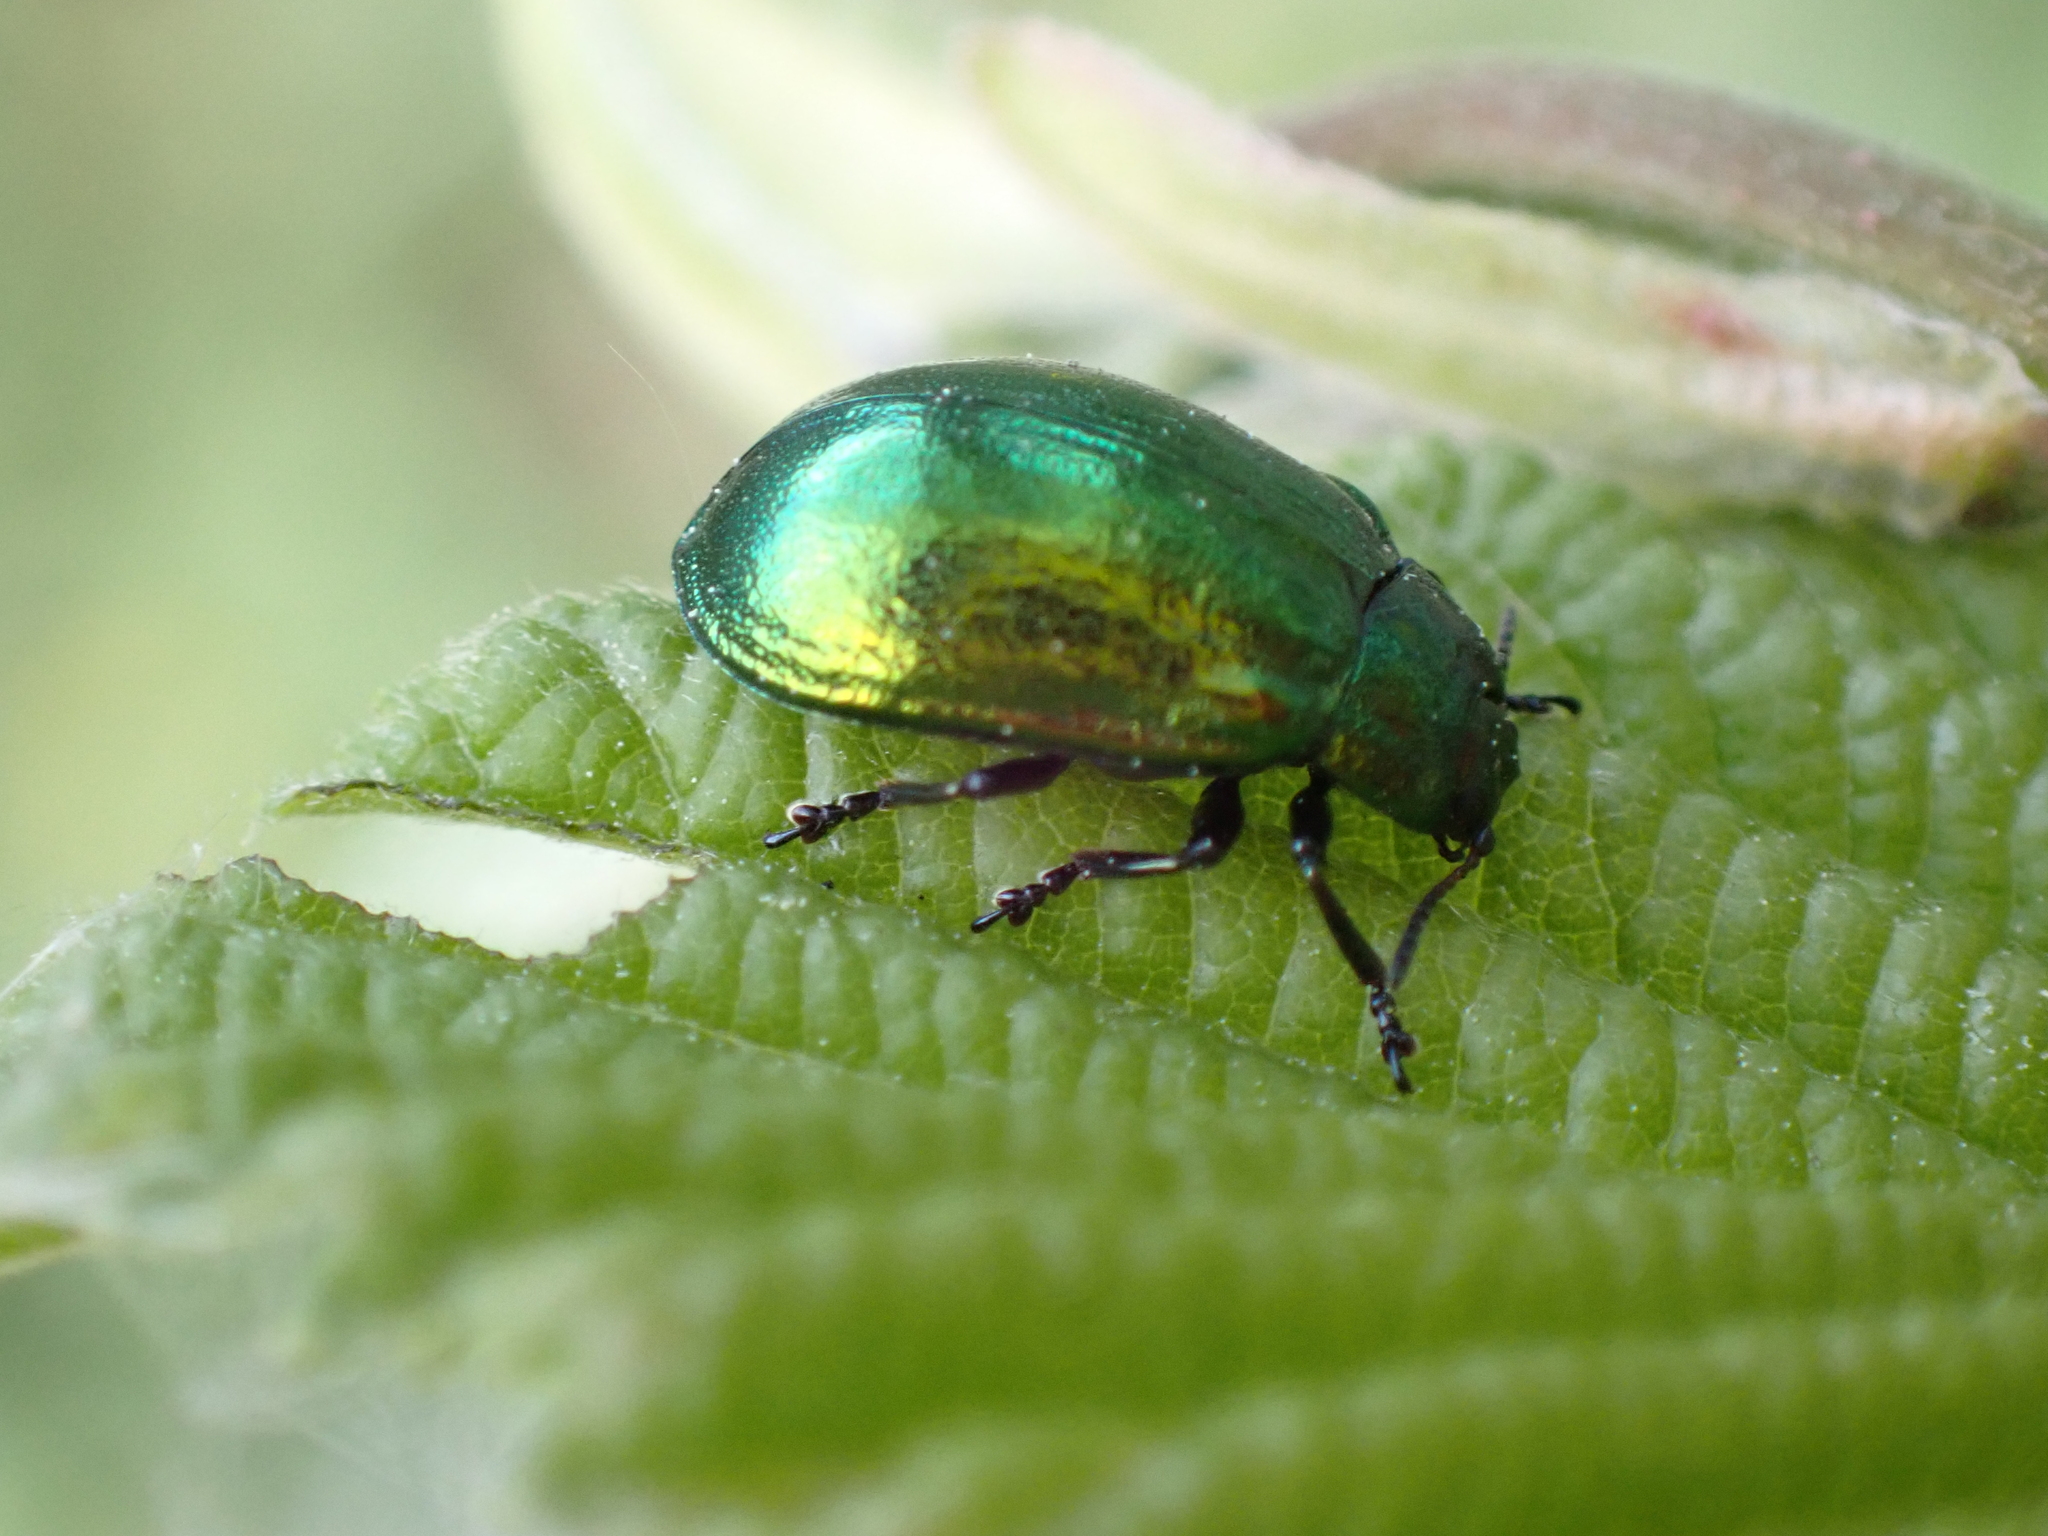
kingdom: Animalia
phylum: Arthropoda
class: Insecta
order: Coleoptera
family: Chrysomelidae
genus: Plagiosterna
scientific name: Plagiosterna aenea
